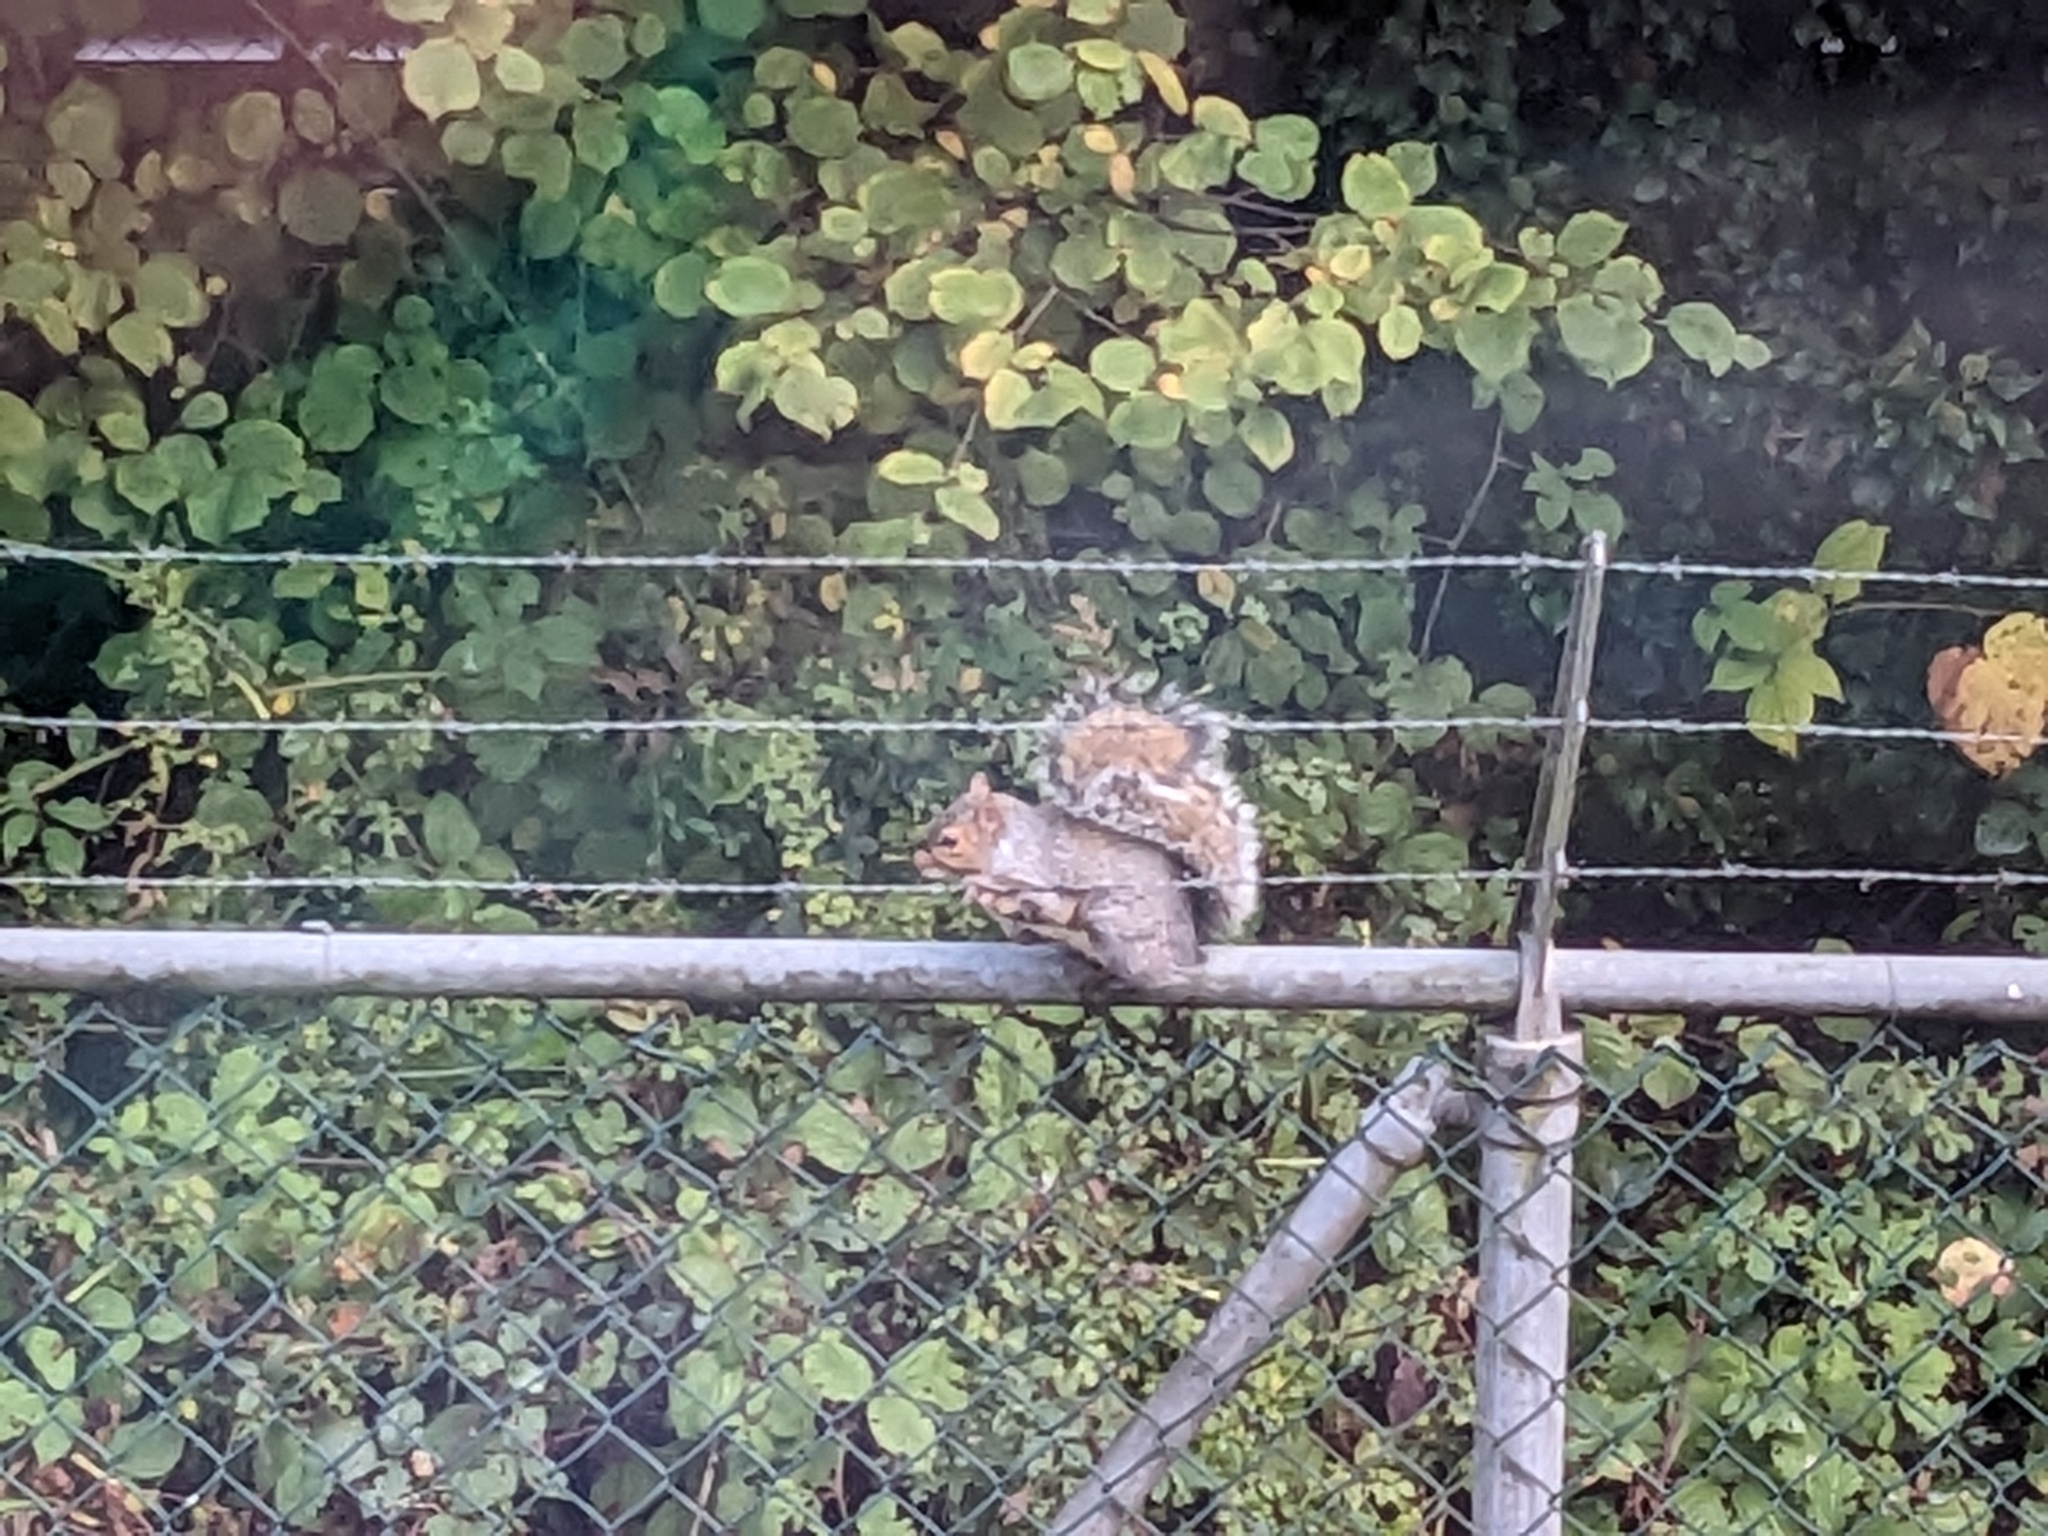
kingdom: Animalia
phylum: Chordata
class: Mammalia
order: Rodentia
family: Sciuridae
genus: Sciurus
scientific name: Sciurus carolinensis
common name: Eastern gray squirrel
